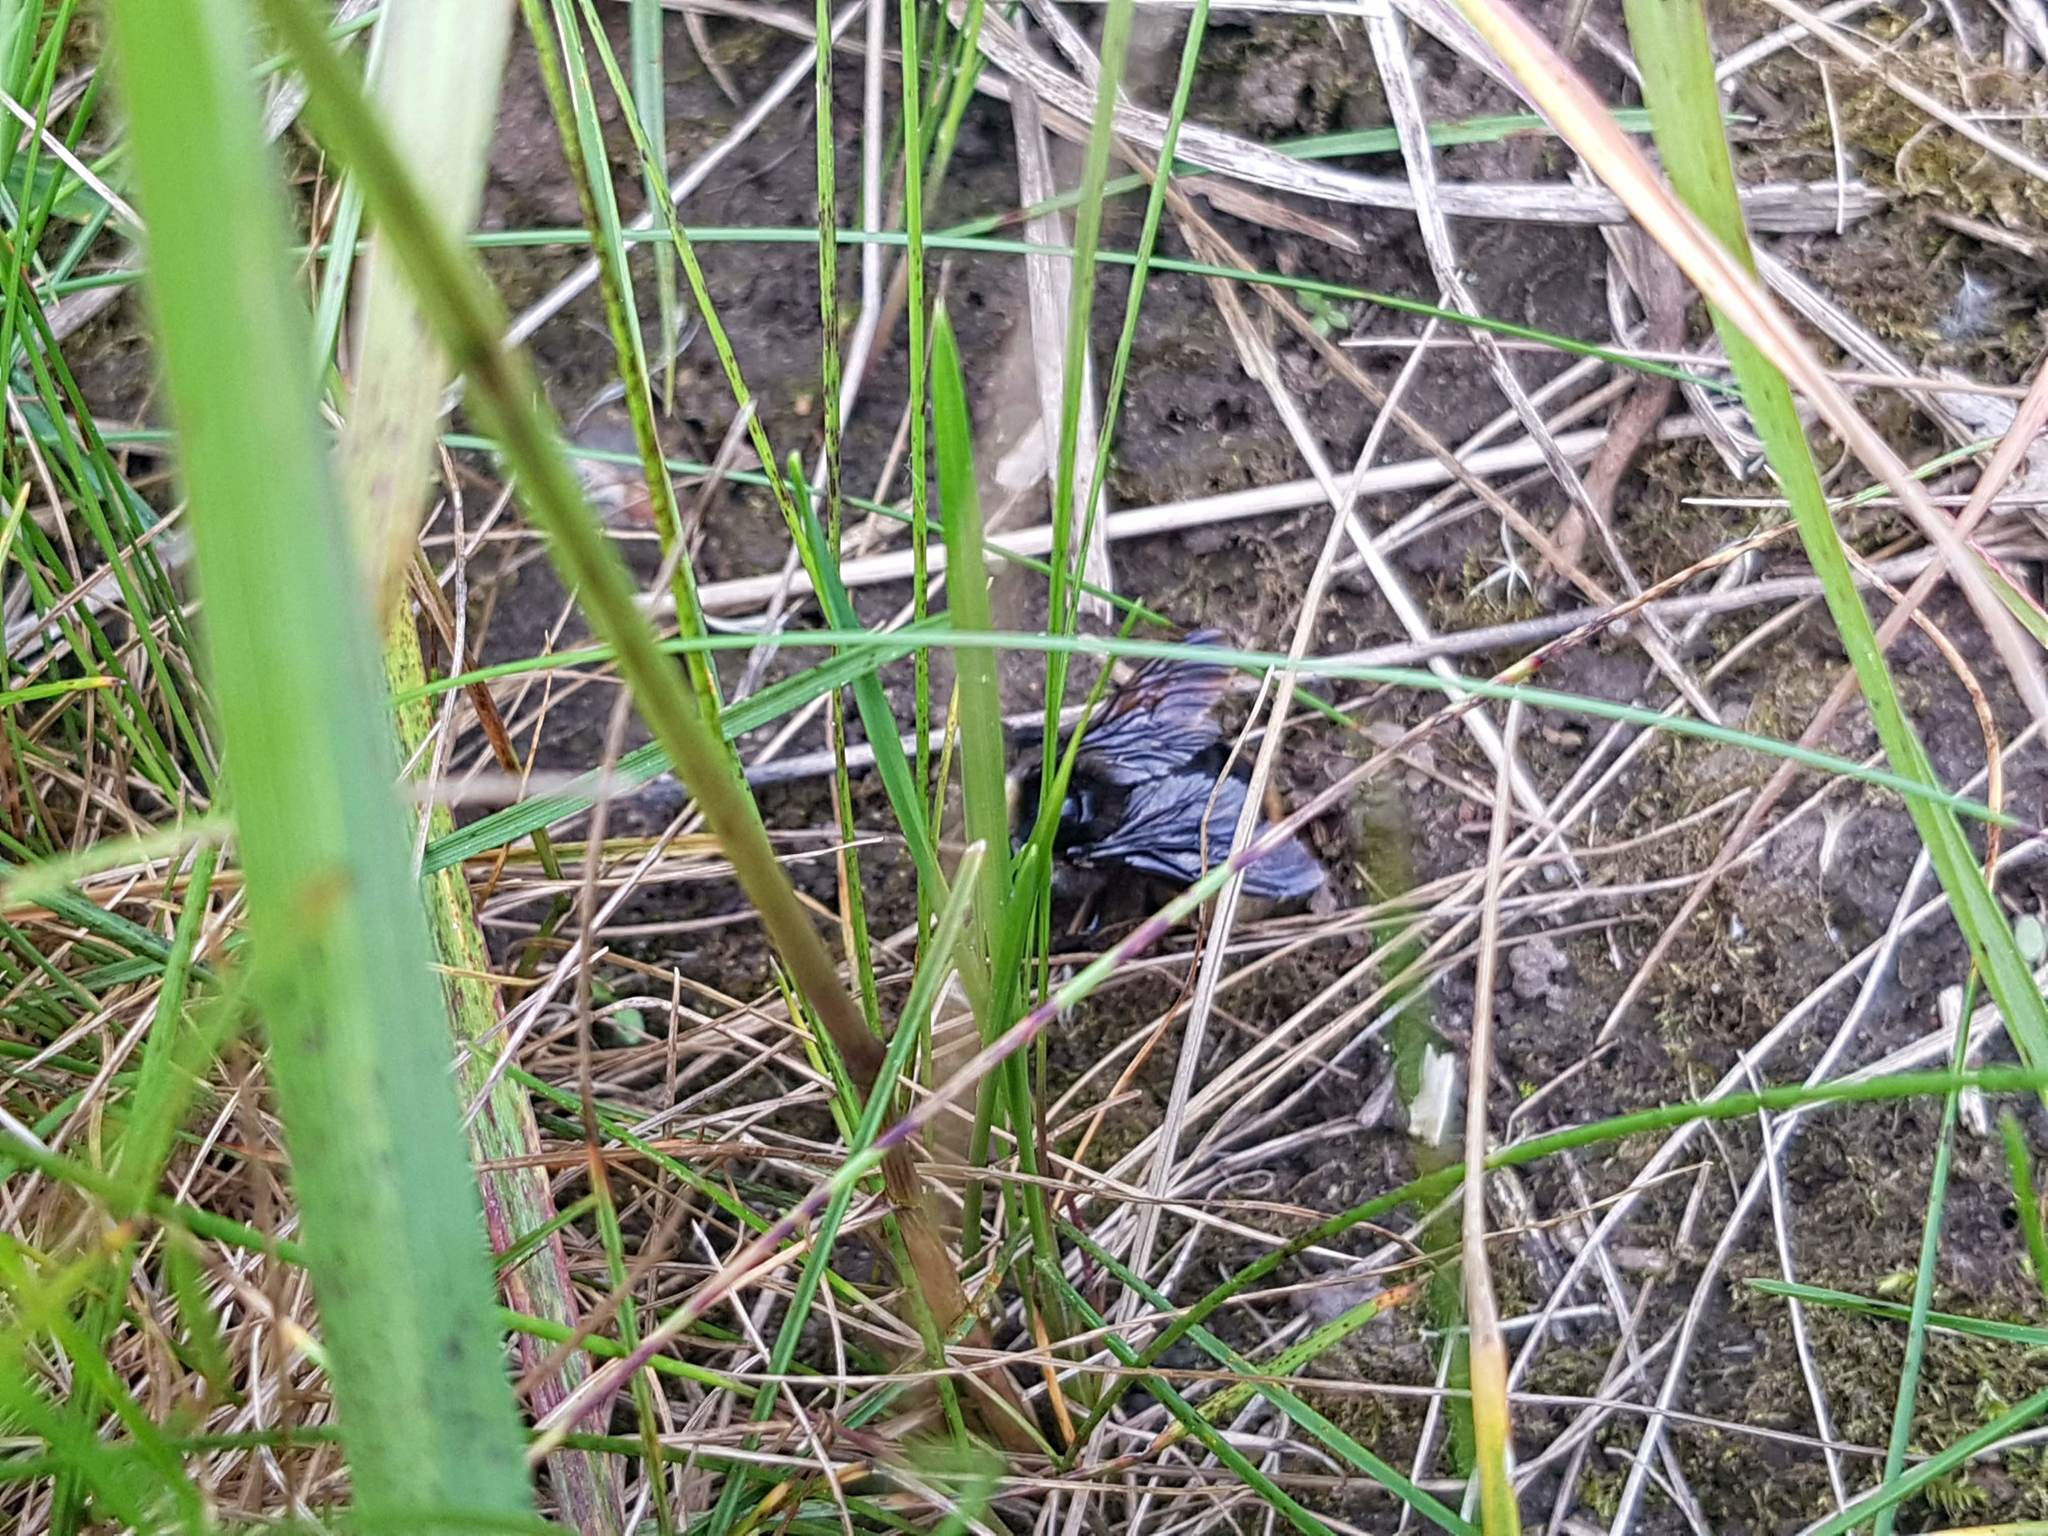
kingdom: Animalia
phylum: Arthropoda
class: Insecta
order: Hymenoptera
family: Apidae
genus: Bombus
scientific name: Bombus rupestris
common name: Hill cuckoo-bee
